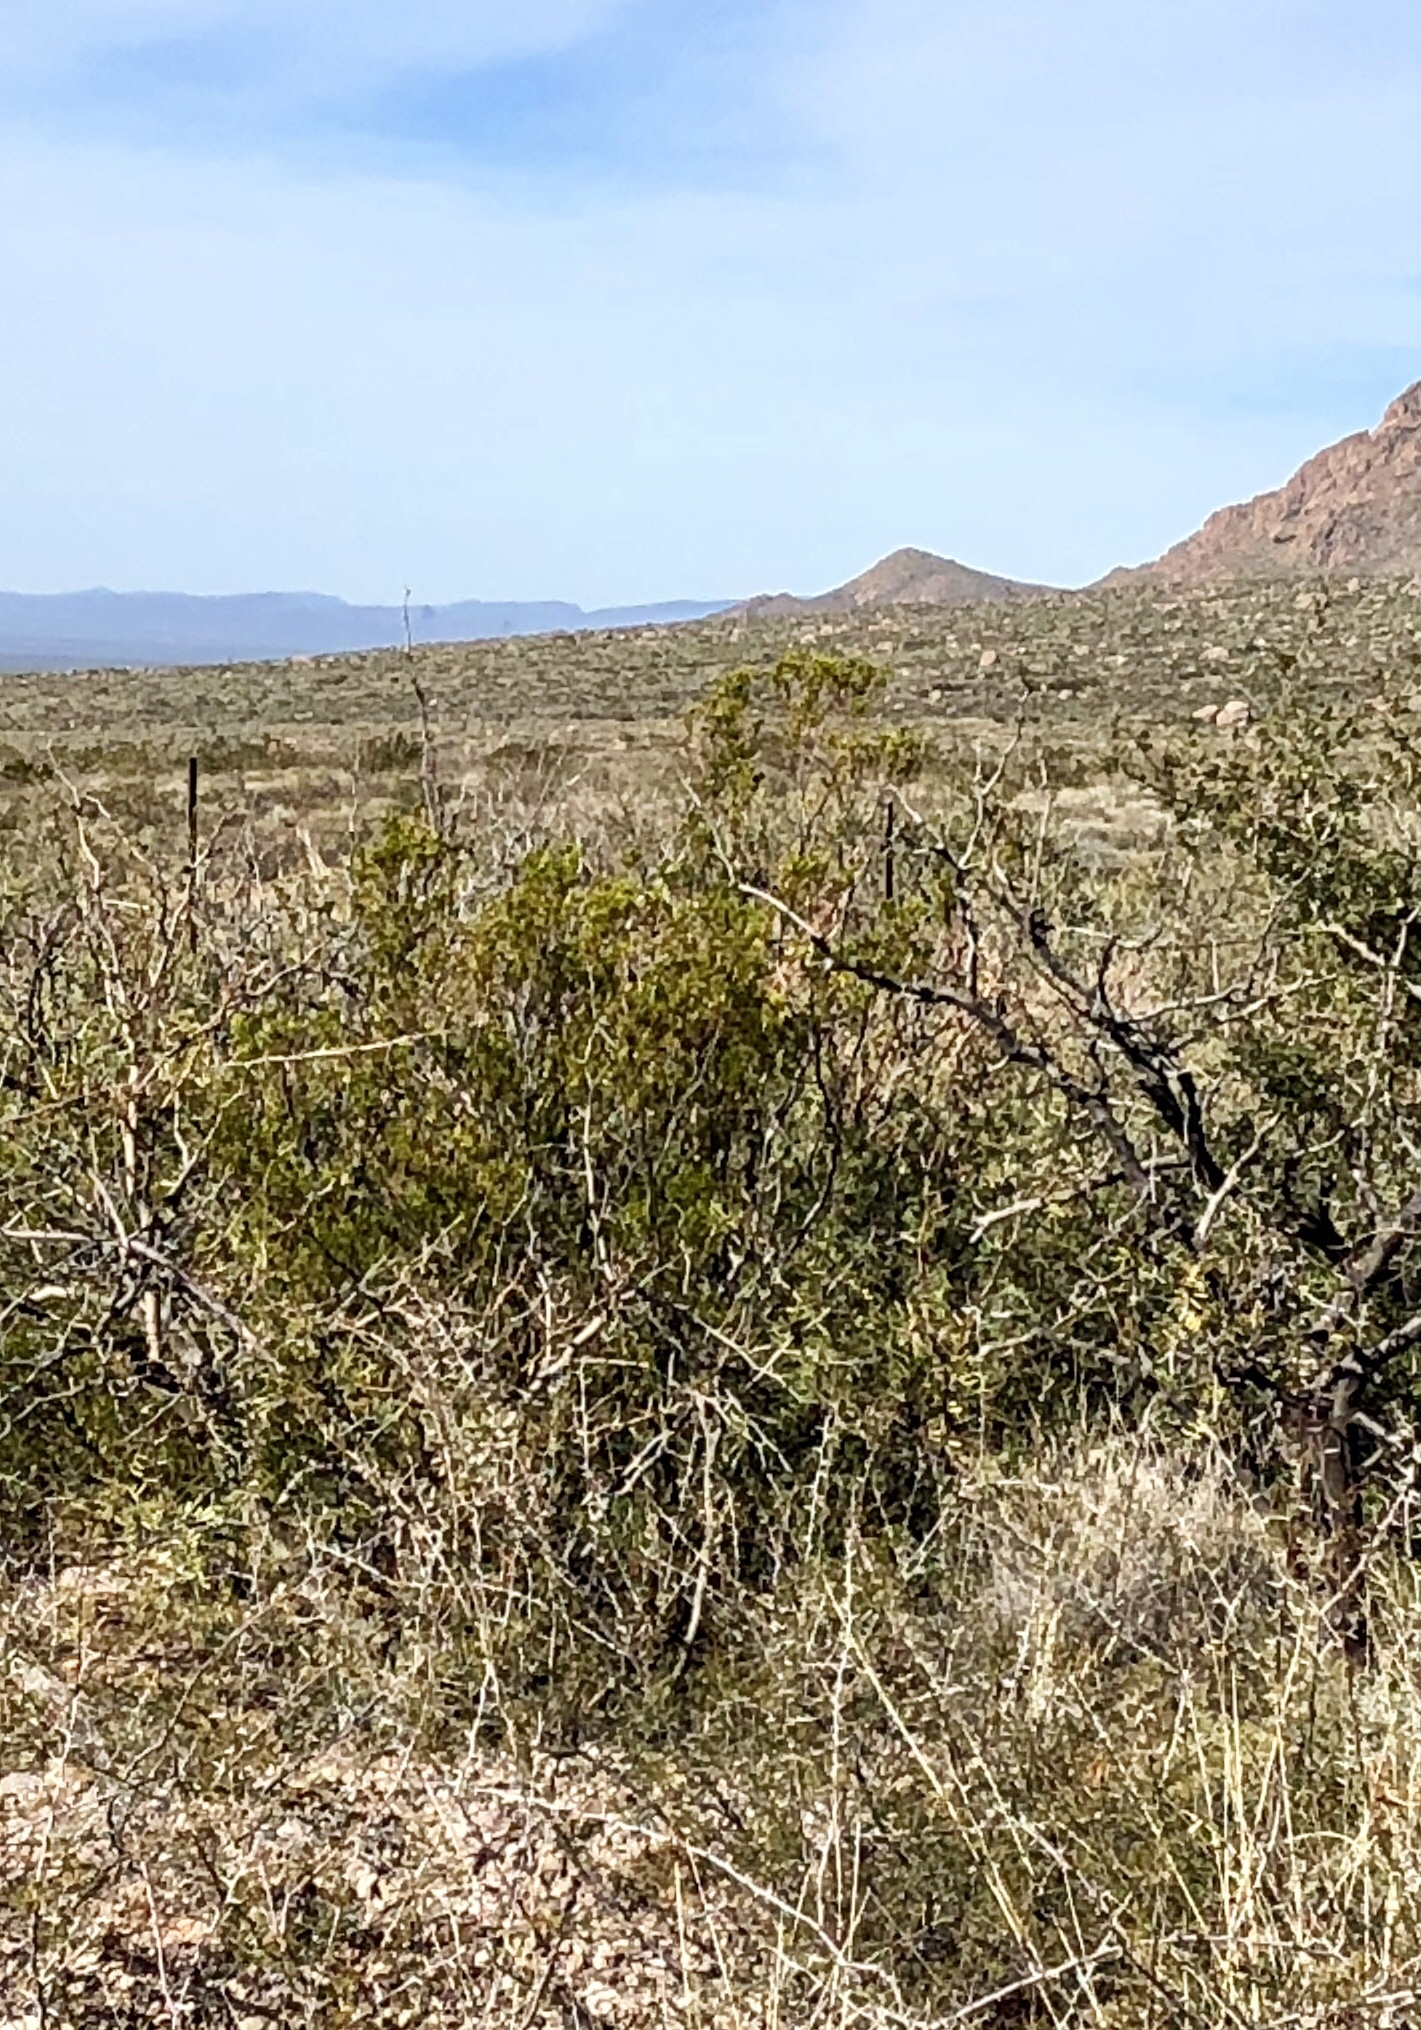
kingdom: Plantae
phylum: Tracheophyta
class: Magnoliopsida
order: Zygophyllales
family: Zygophyllaceae
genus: Larrea
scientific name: Larrea tridentata
